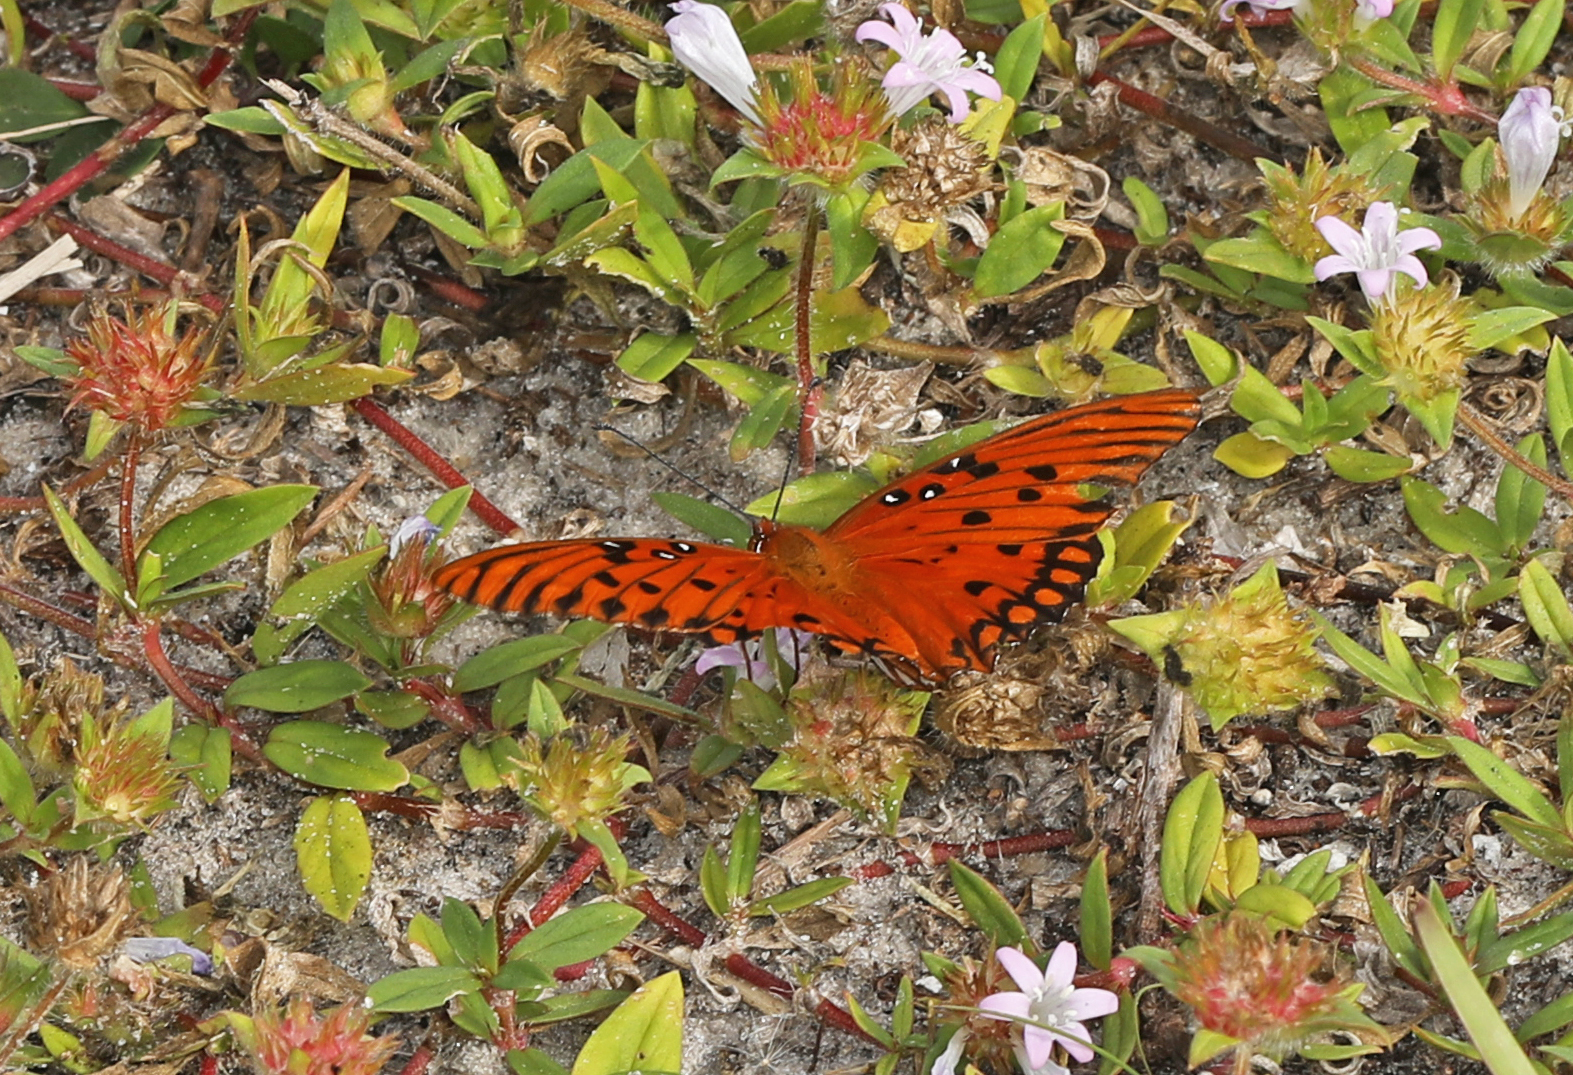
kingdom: Animalia
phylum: Arthropoda
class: Insecta
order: Lepidoptera
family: Nymphalidae
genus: Dione
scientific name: Dione vanillae
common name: Gulf fritillary
